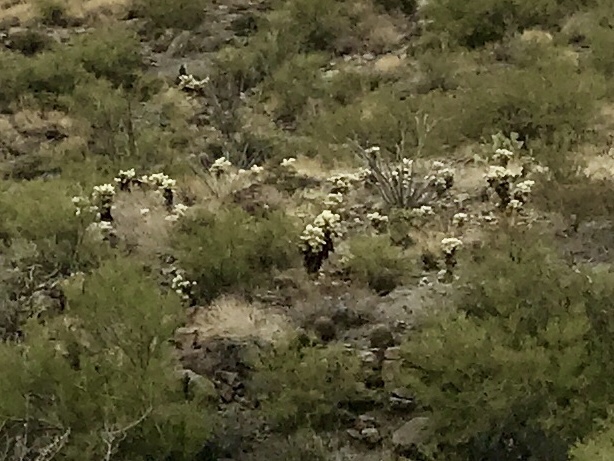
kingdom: Plantae
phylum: Tracheophyta
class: Magnoliopsida
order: Caryophyllales
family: Cactaceae
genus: Cylindropuntia
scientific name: Cylindropuntia fosbergii
